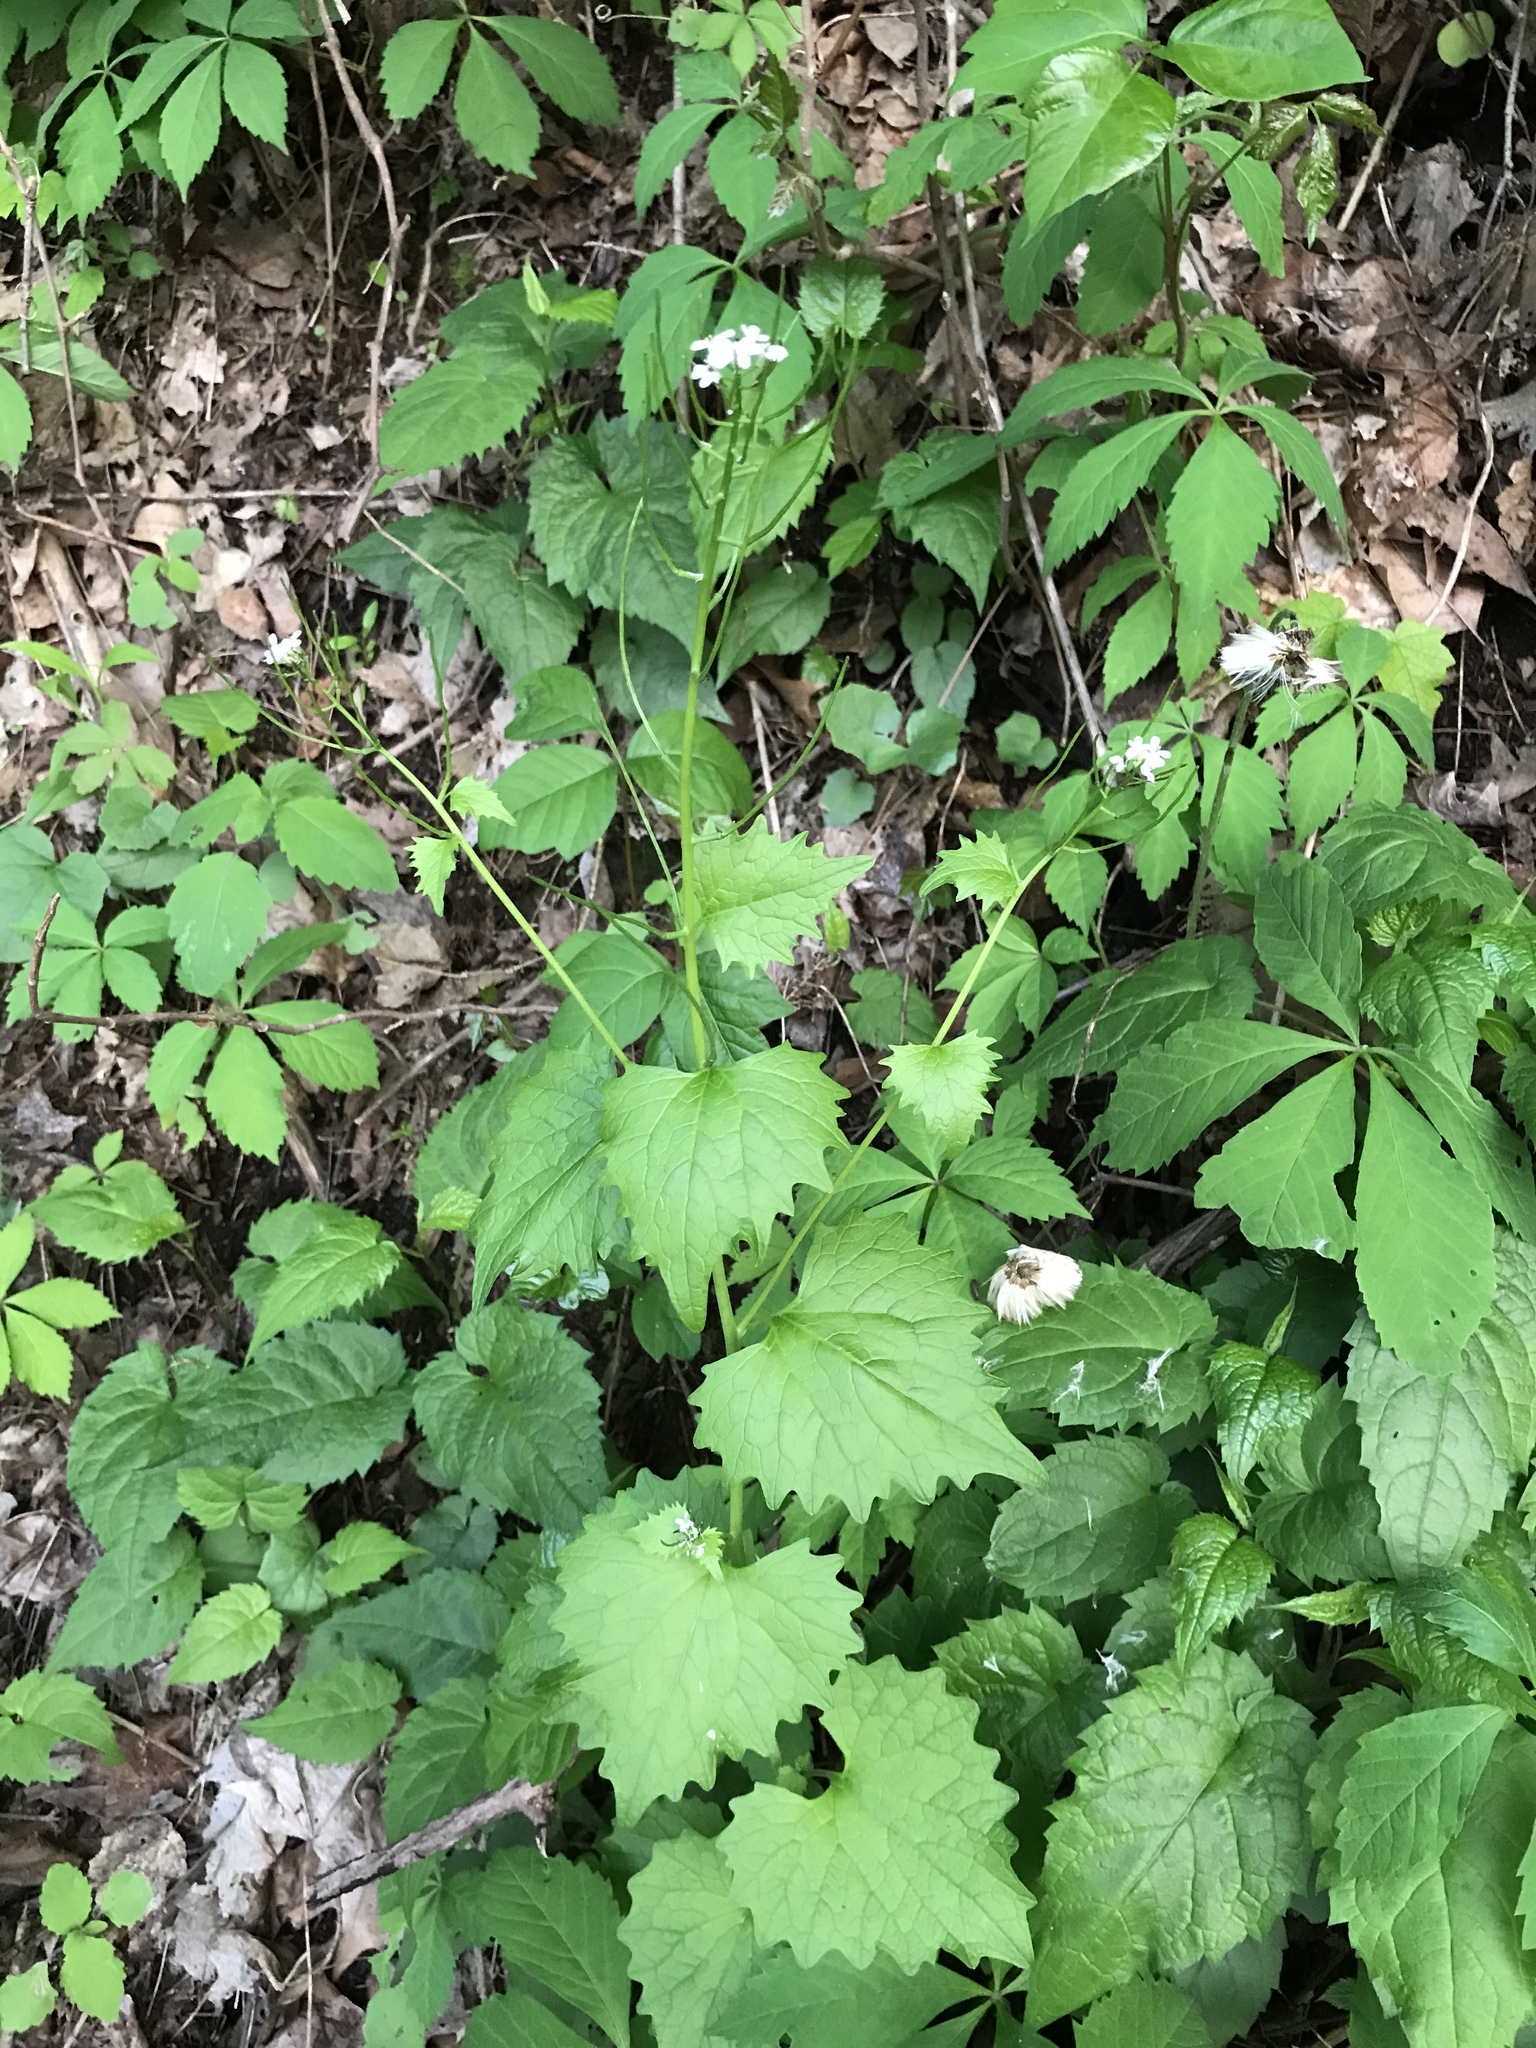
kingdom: Plantae
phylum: Tracheophyta
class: Magnoliopsida
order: Brassicales
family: Brassicaceae
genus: Alliaria
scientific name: Alliaria petiolata
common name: Garlic mustard
